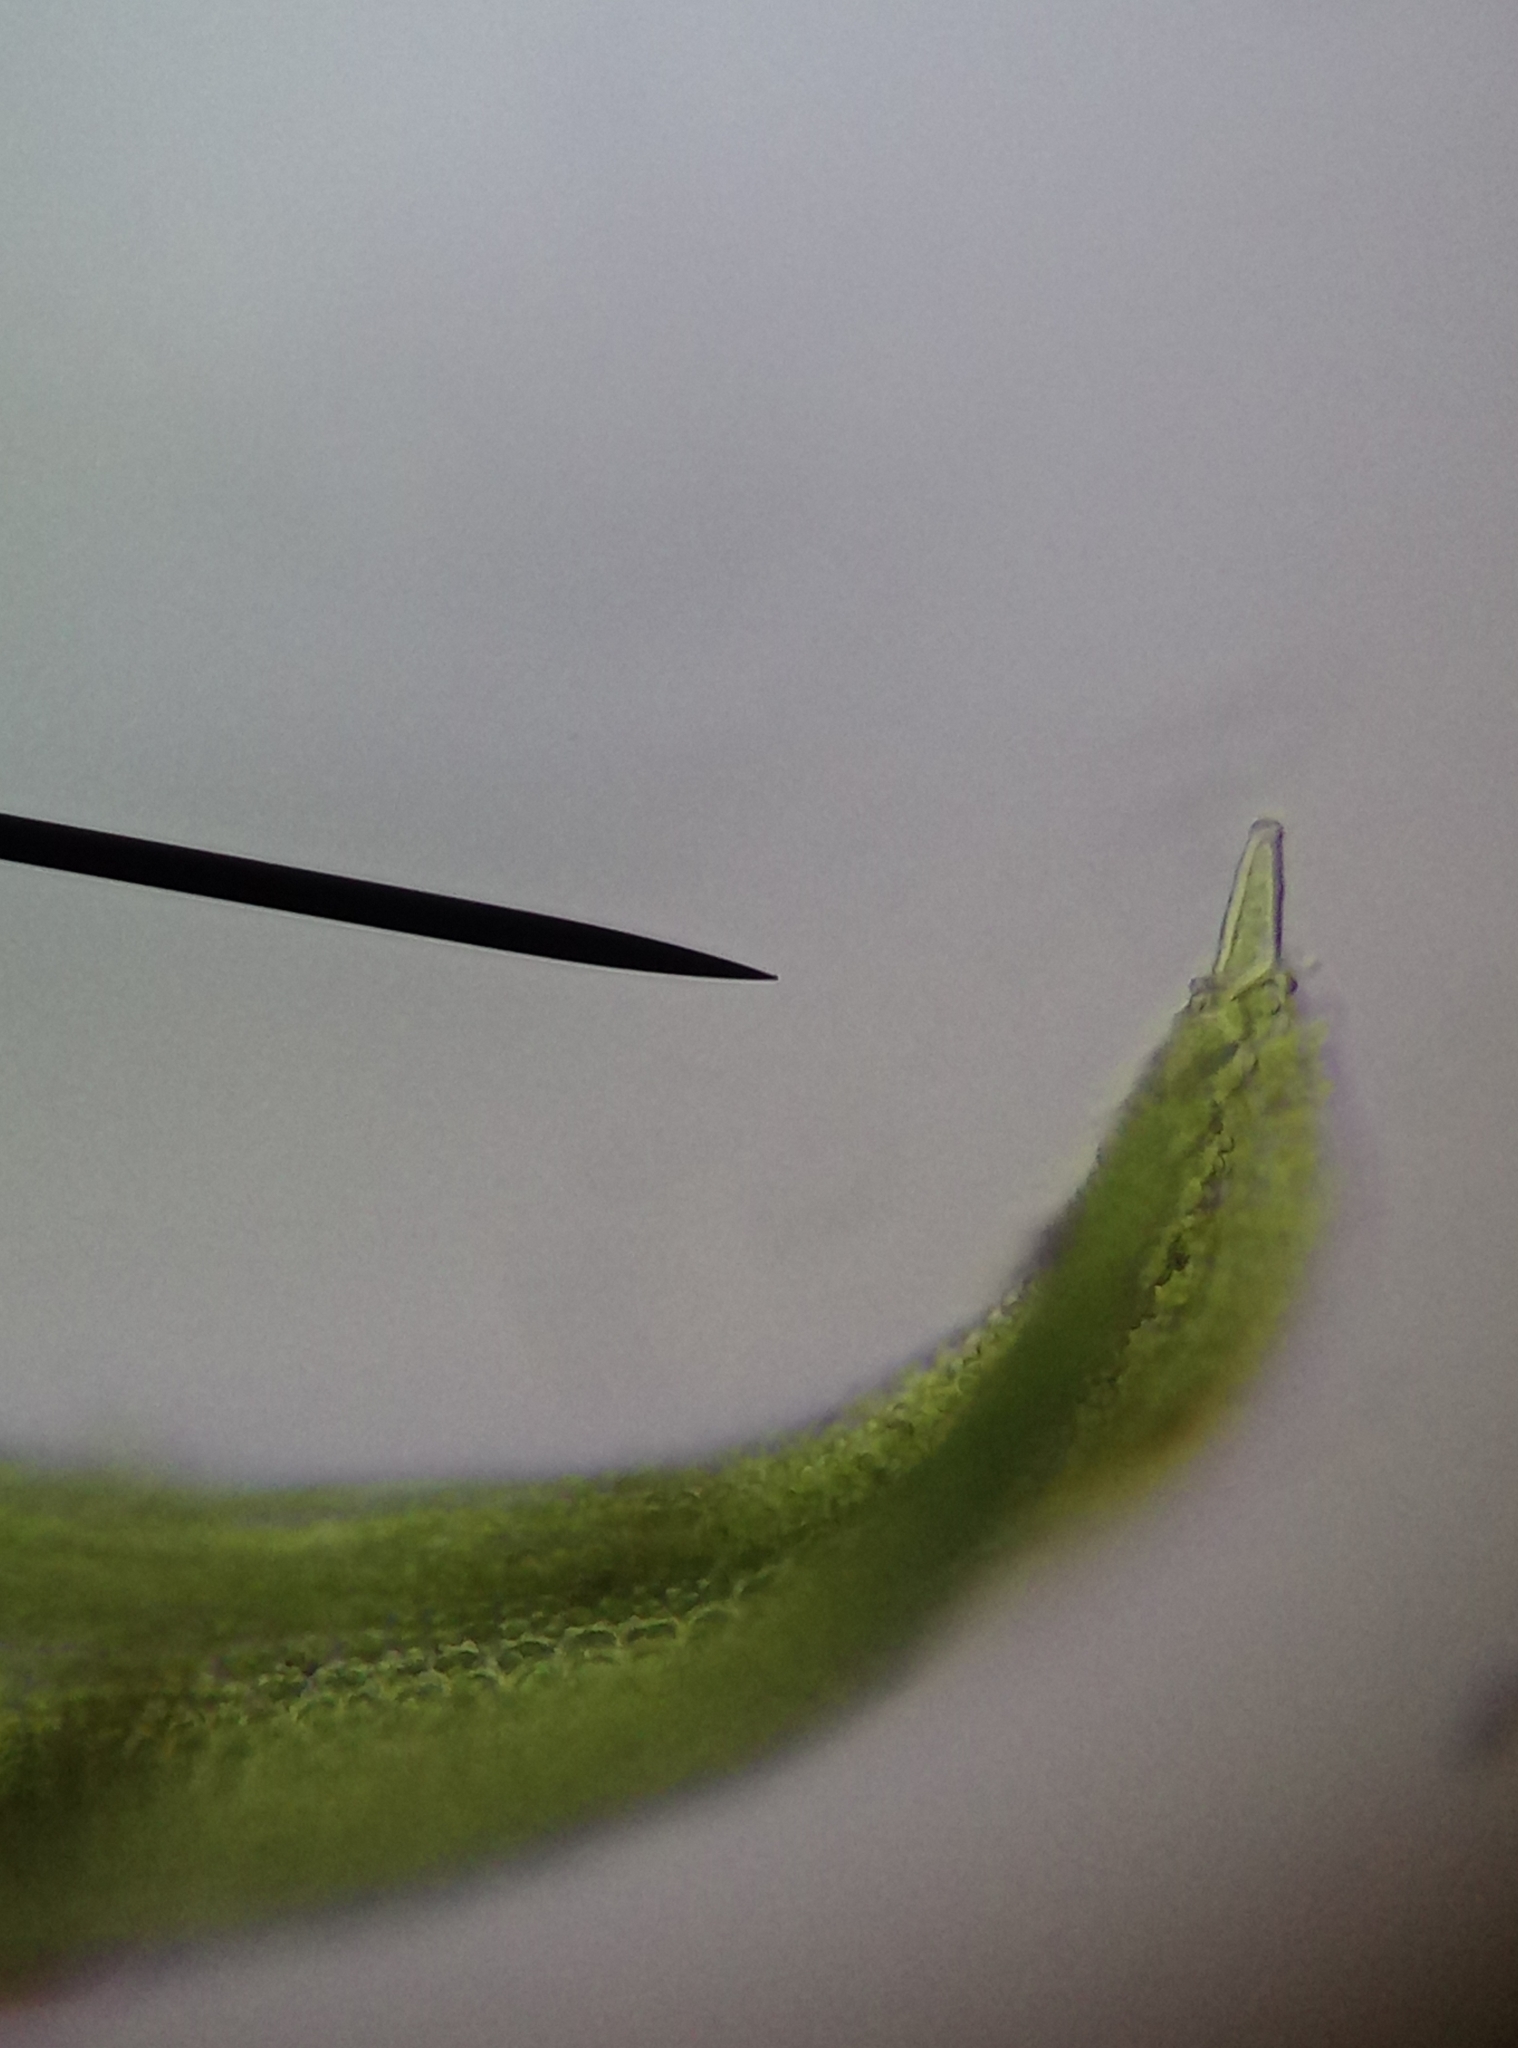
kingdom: Plantae
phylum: Bryophyta
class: Bryopsida
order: Pottiales
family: Pottiaceae
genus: Barbula
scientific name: Barbula unguiculata
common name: Prickly beard moss
